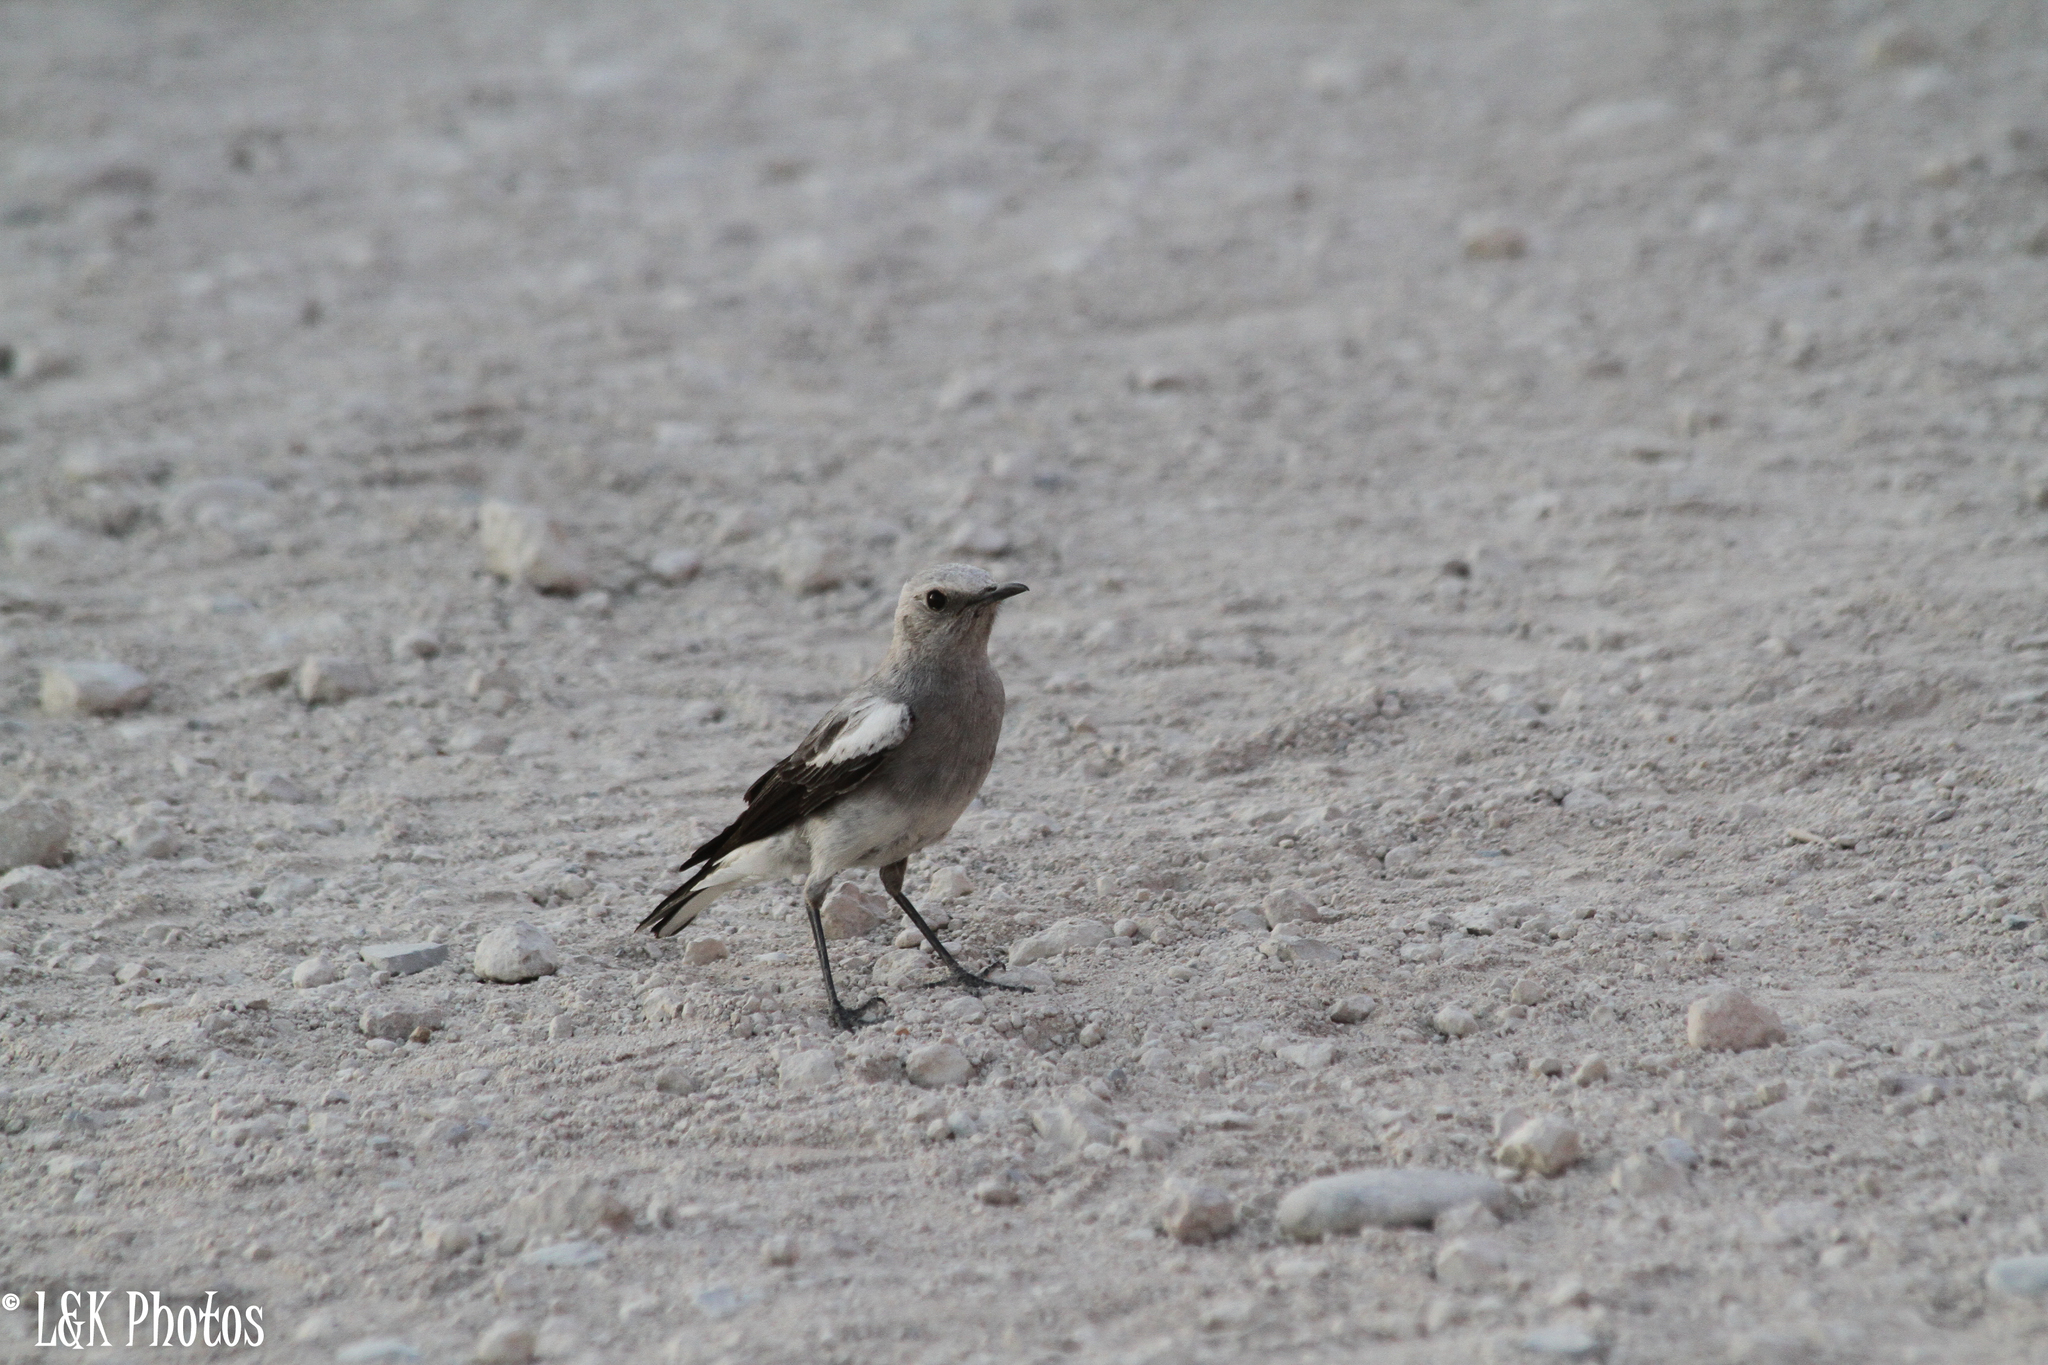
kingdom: Animalia
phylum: Chordata
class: Aves
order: Passeriformes
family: Muscicapidae
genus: Oenanthe
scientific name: Oenanthe monticola
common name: Mountain wheatear
